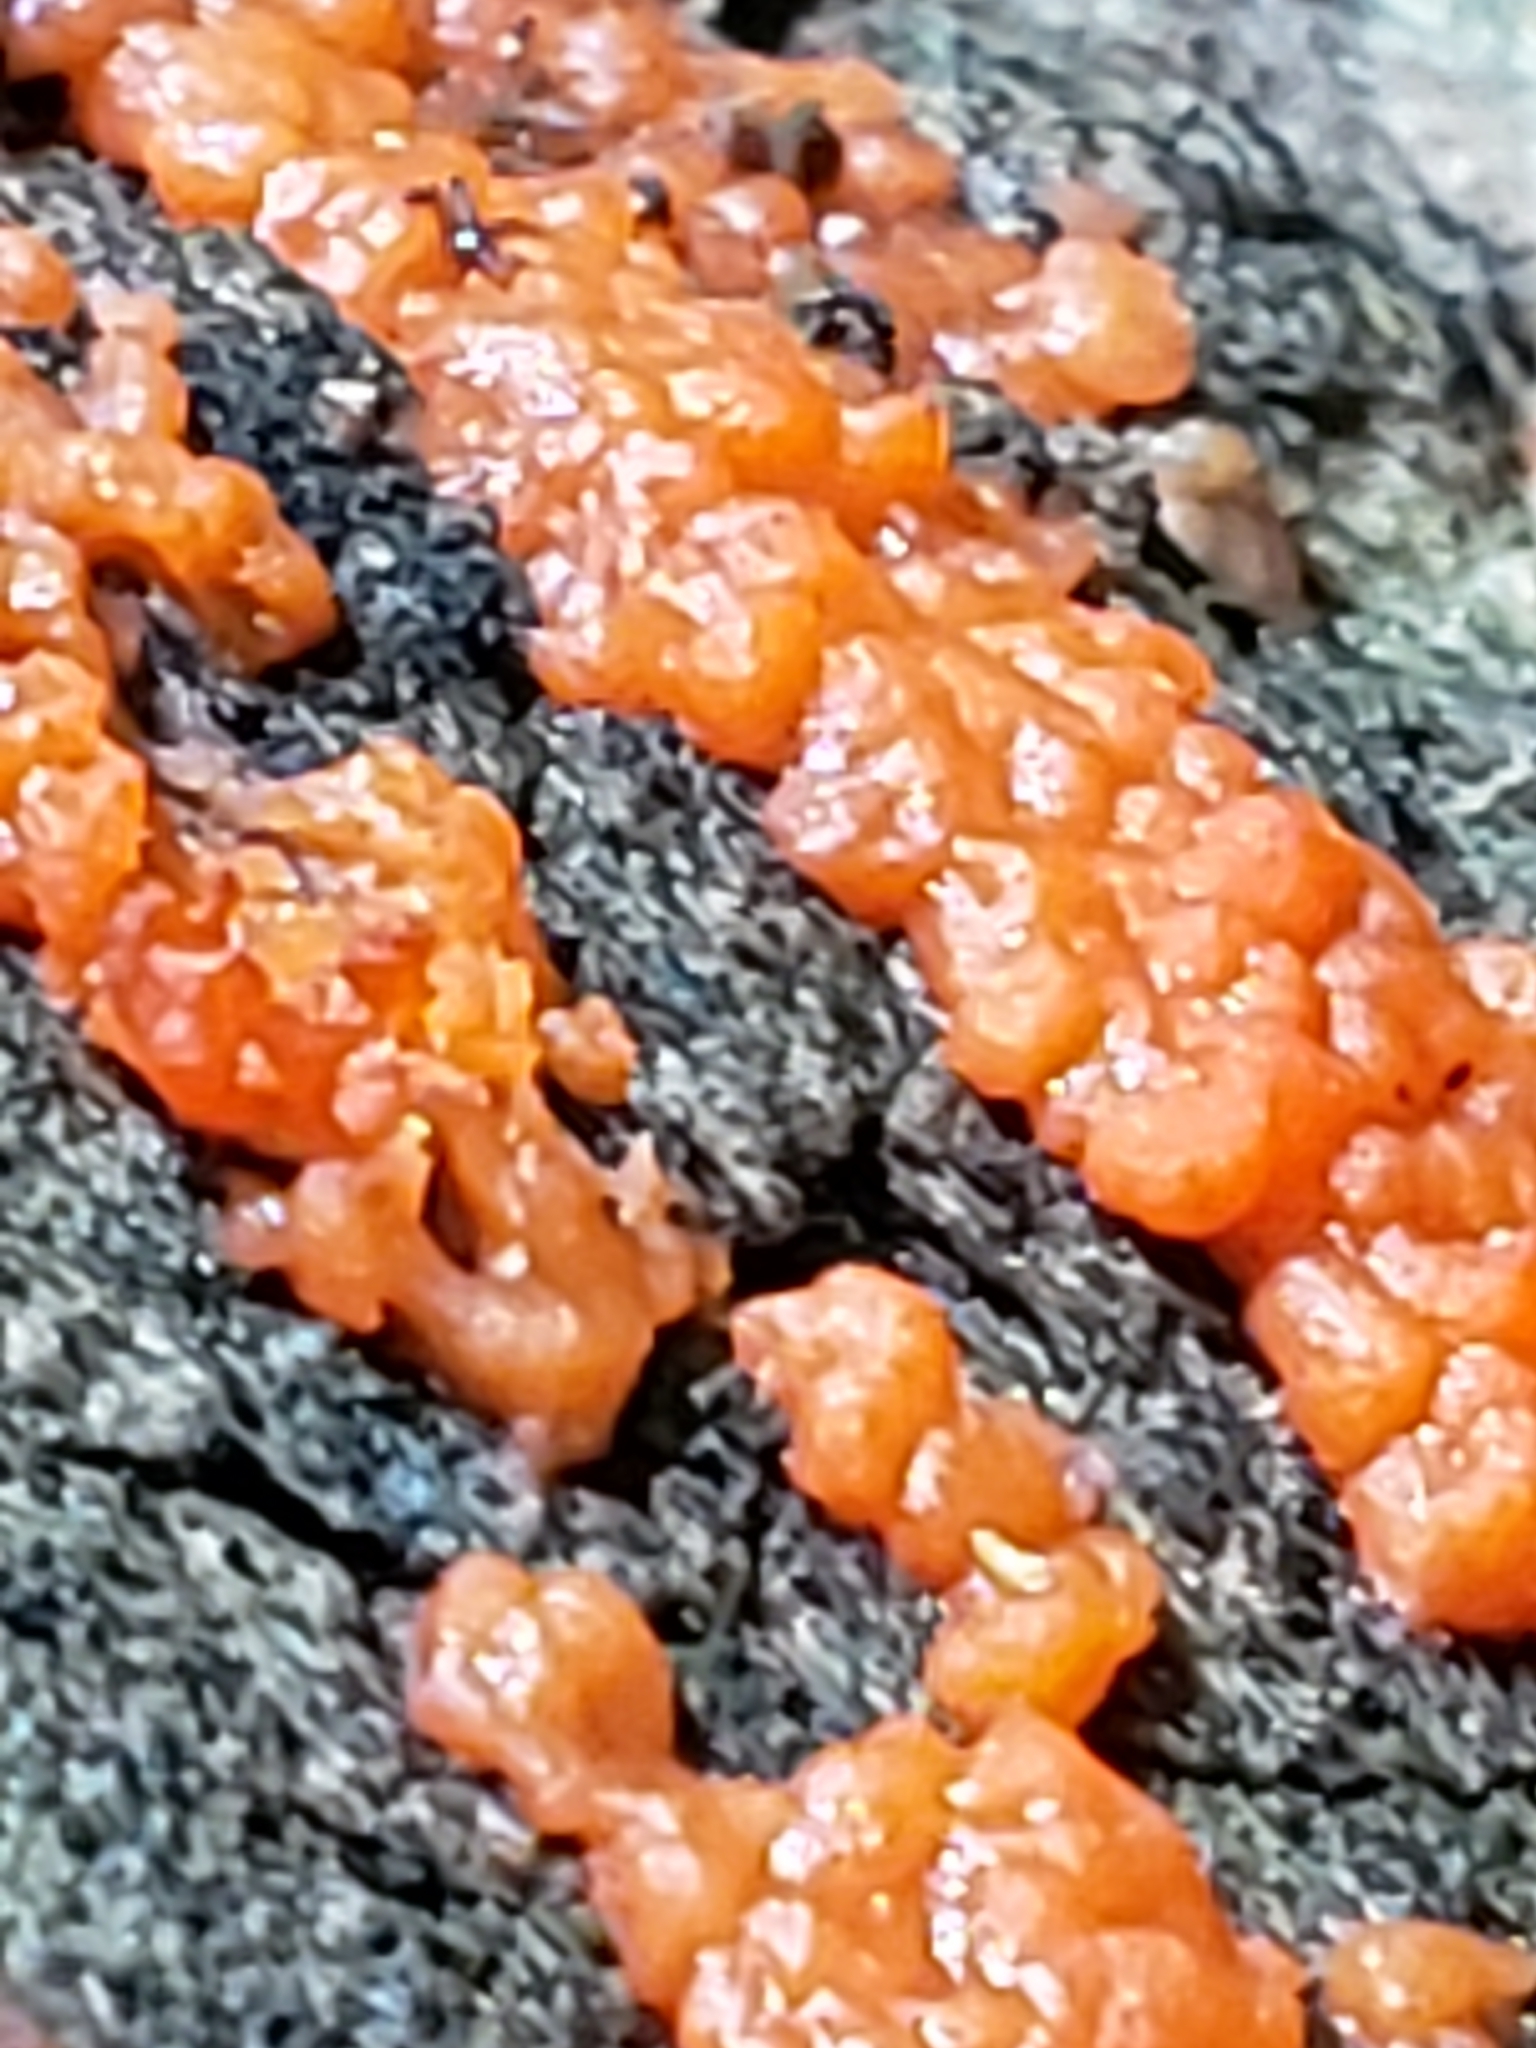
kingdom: Fungi
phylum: Basidiomycota
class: Agaricomycetes
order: Cantharellales
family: Tulasnellaceae
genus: Tulasnella
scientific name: Tulasnella aurantiaca
